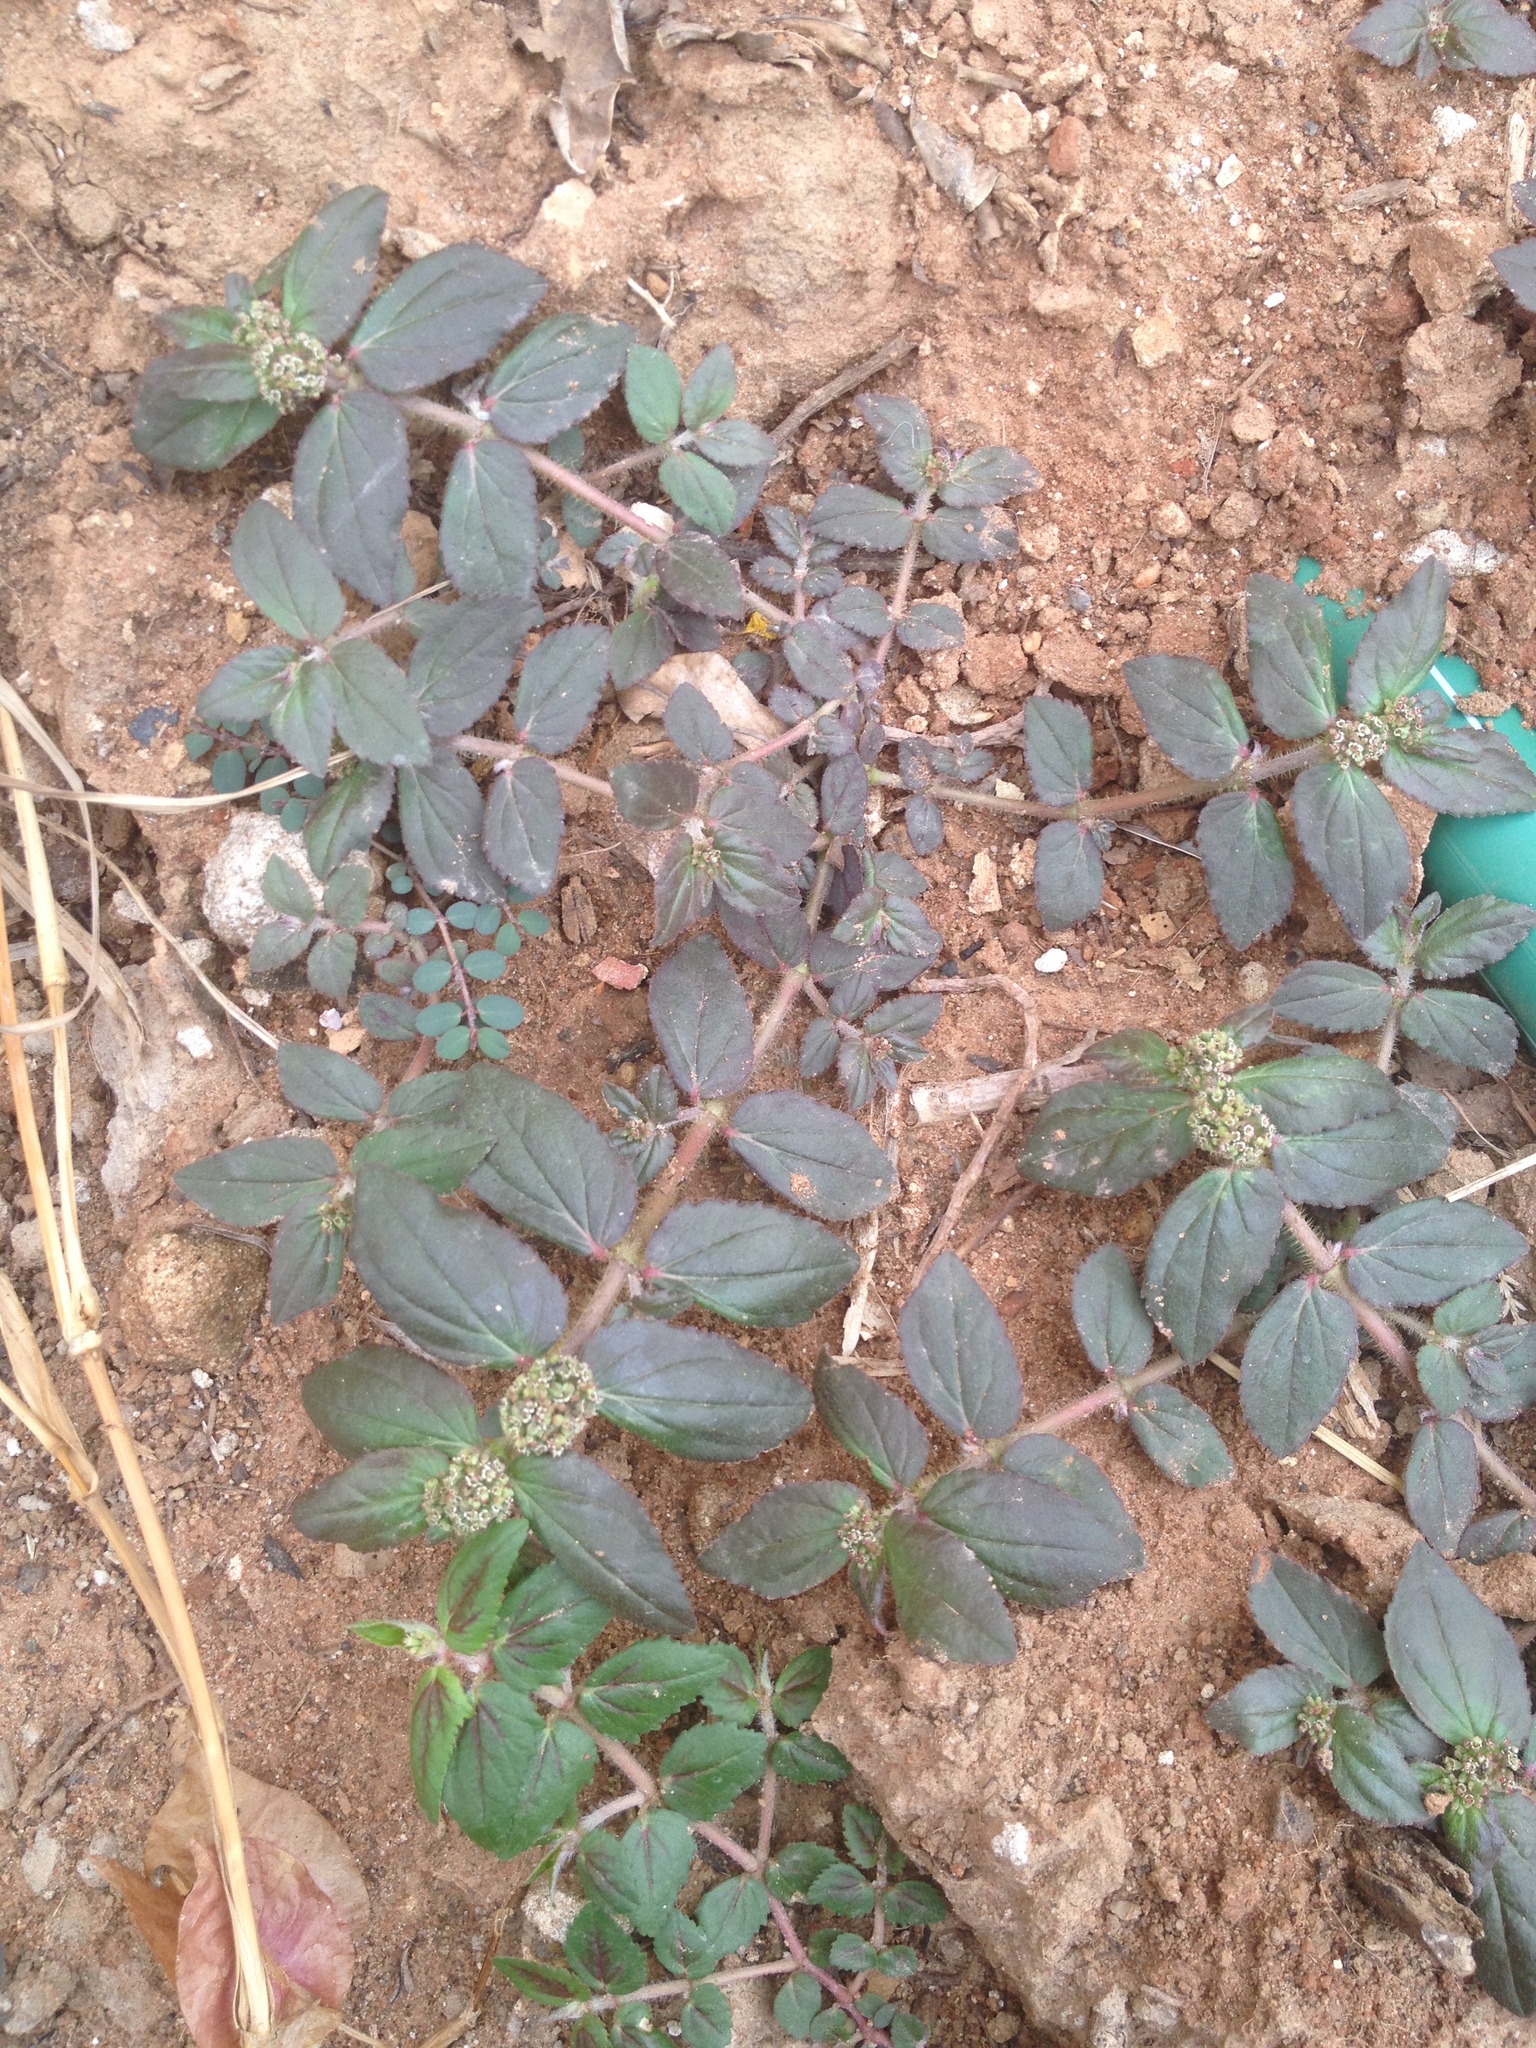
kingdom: Plantae
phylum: Tracheophyta
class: Magnoliopsida
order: Malpighiales
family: Euphorbiaceae
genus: Euphorbia
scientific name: Euphorbia hirta
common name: Pillpod sandmat
